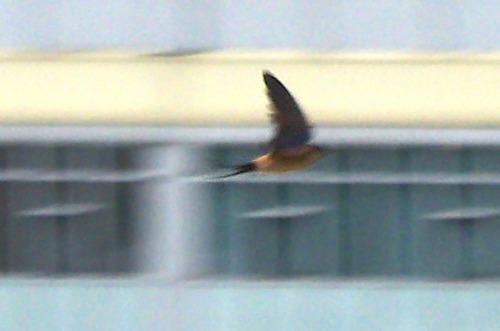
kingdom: Animalia
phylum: Chordata
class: Aves
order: Passeriformes
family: Hirundinidae
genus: Cecropis
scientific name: Cecropis daurica
